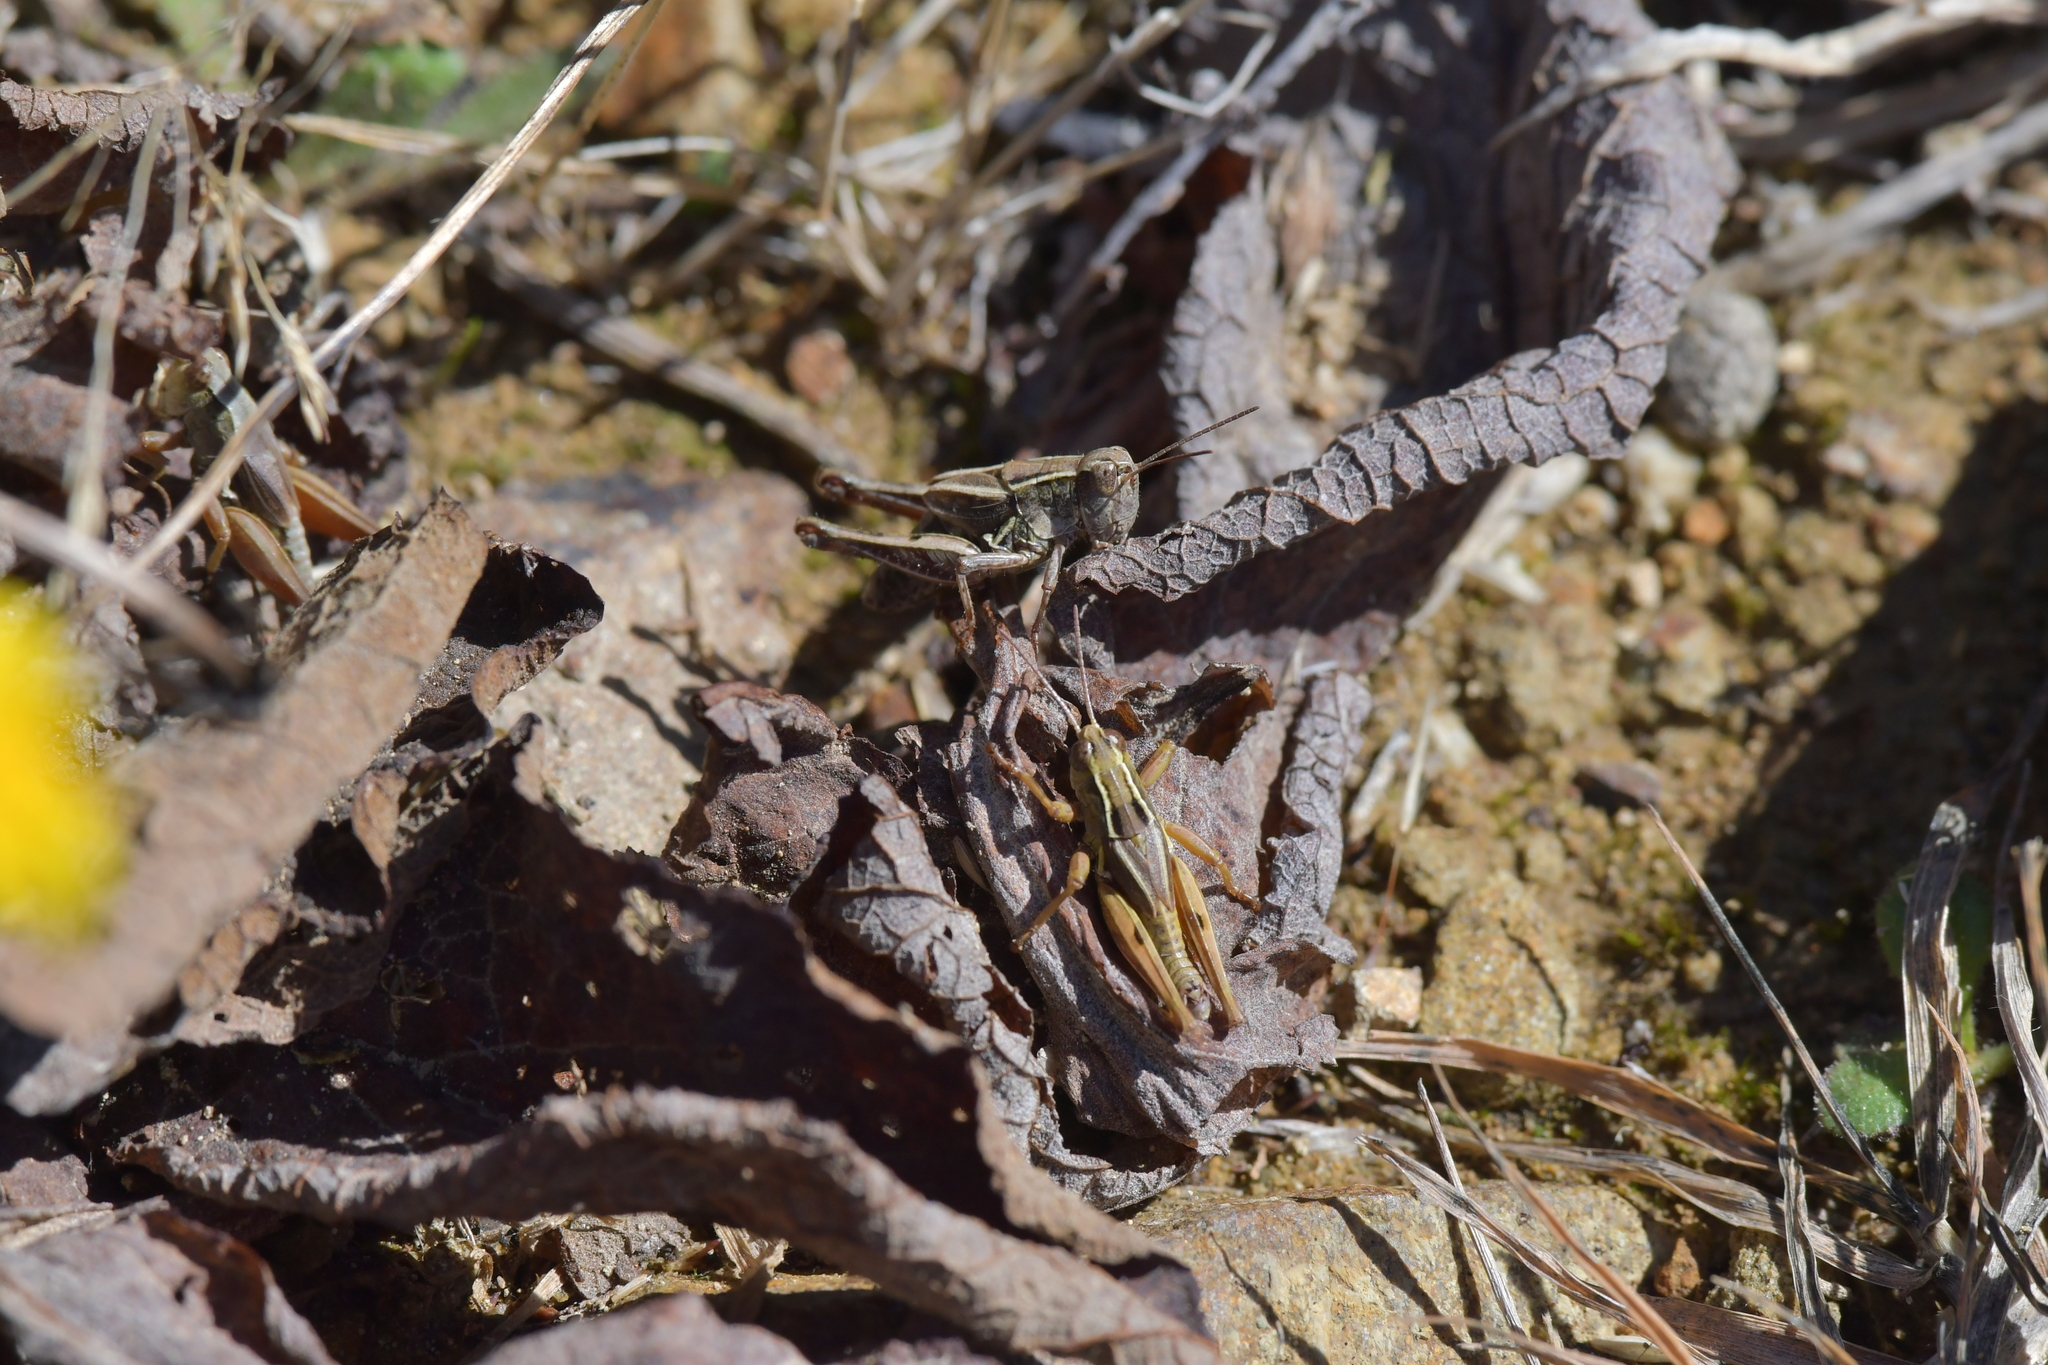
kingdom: Animalia
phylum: Arthropoda
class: Insecta
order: Orthoptera
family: Acrididae
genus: Phaulacridium
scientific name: Phaulacridium marginale
